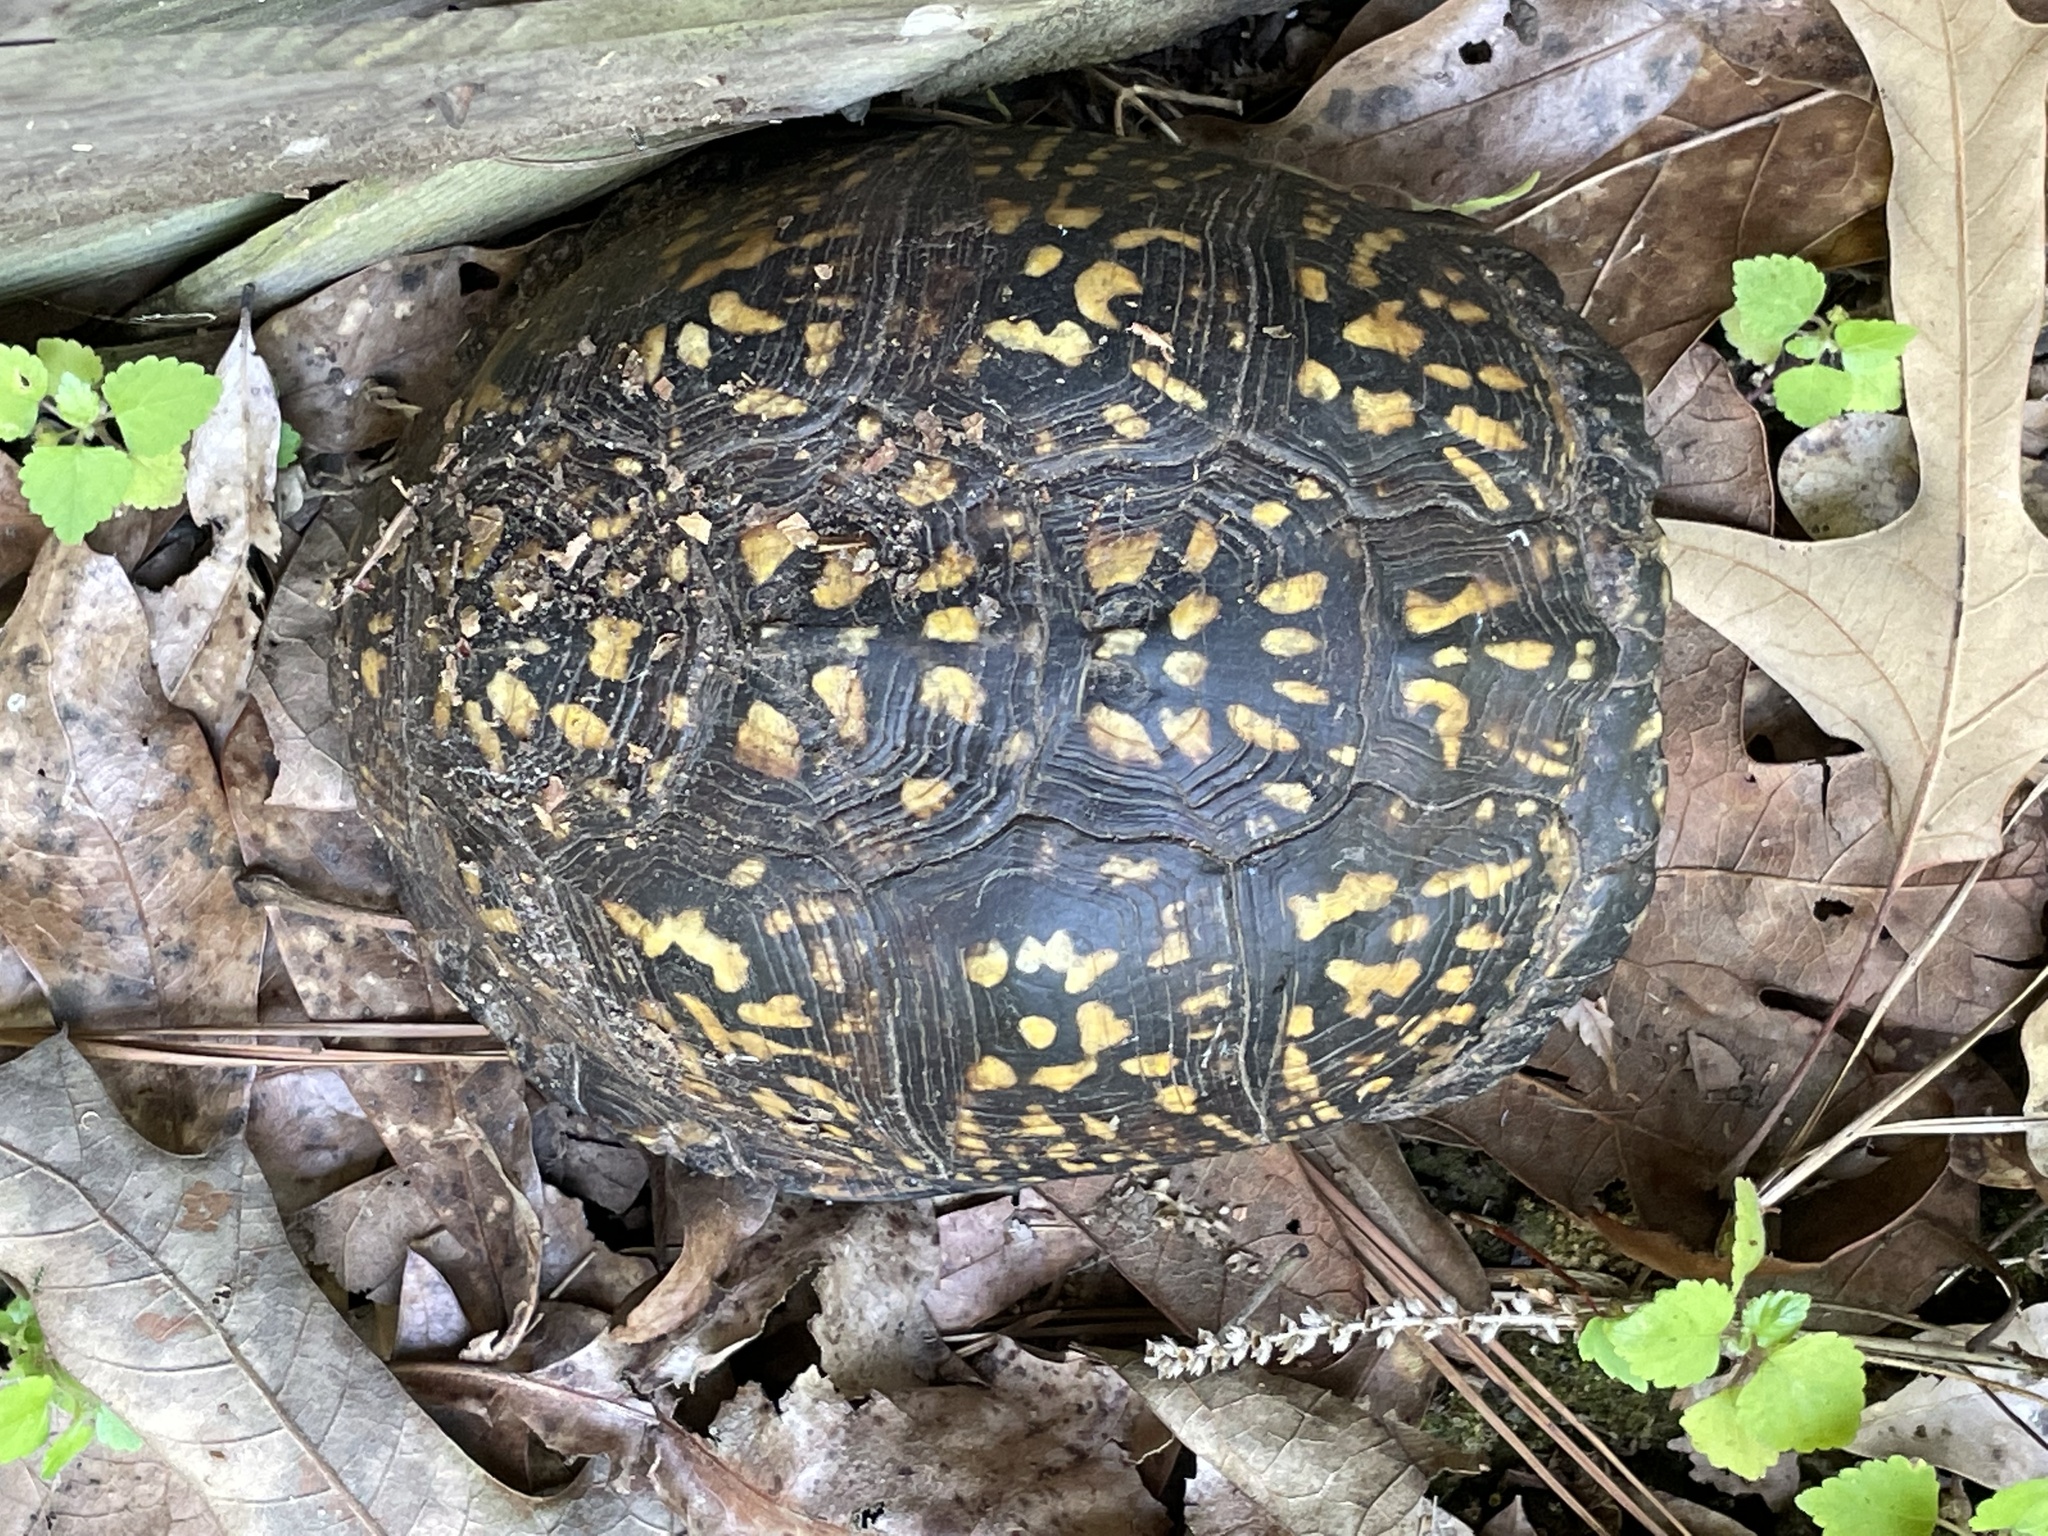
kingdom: Animalia
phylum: Chordata
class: Testudines
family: Emydidae
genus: Terrapene
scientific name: Terrapene carolina
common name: Common box turtle
